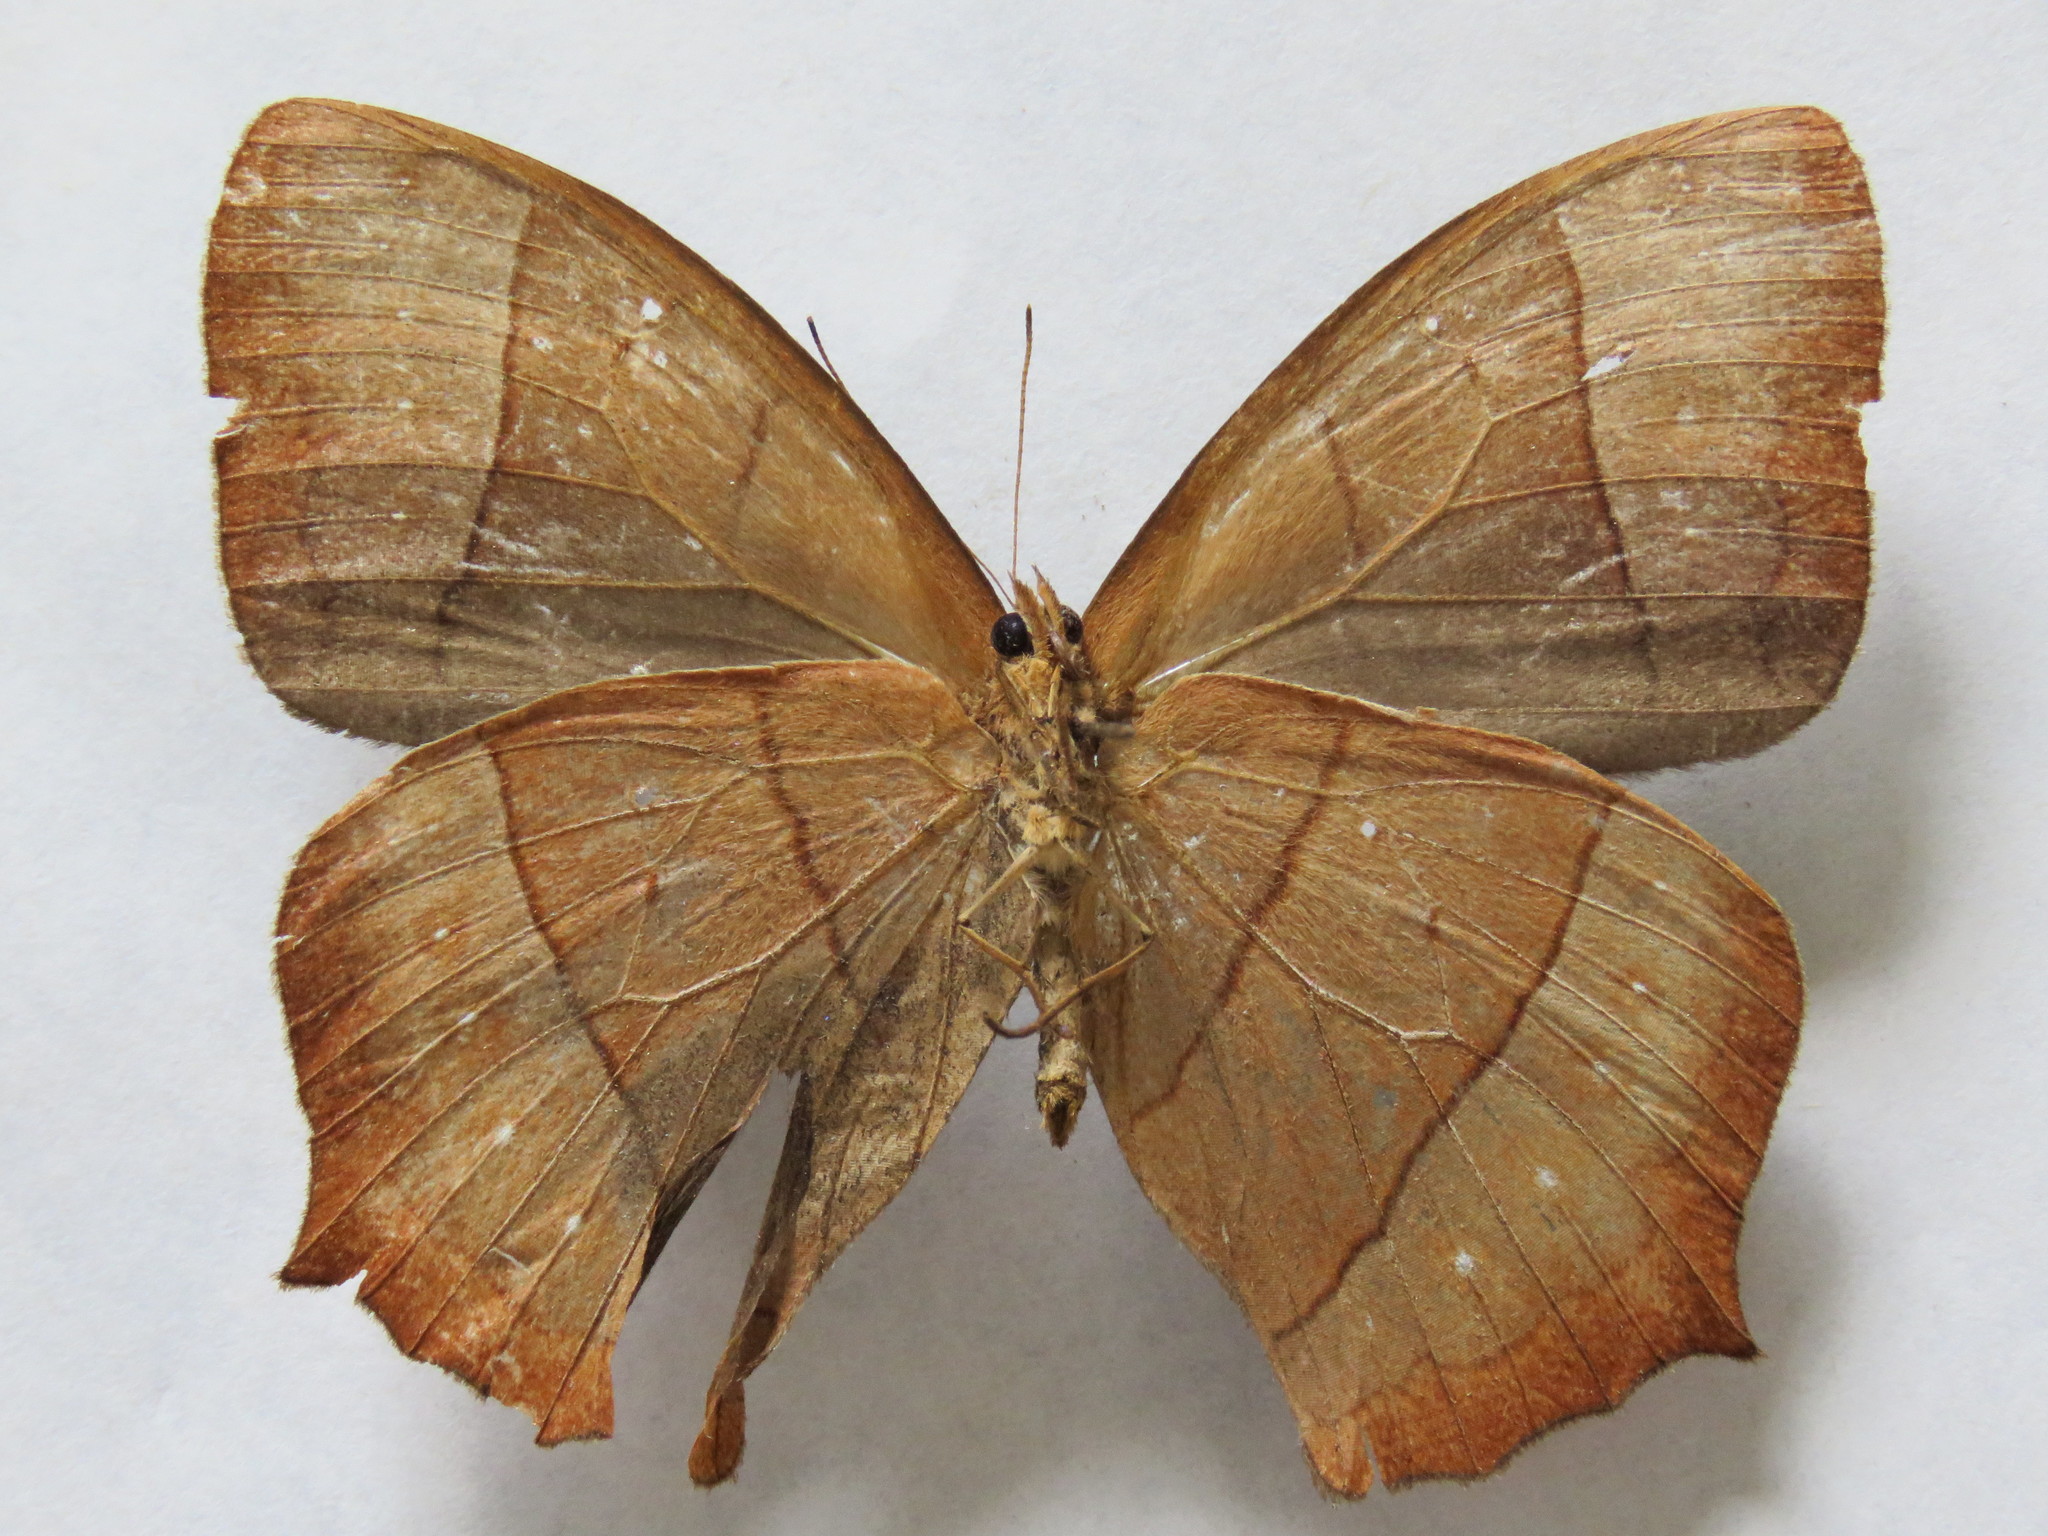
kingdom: Animalia
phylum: Arthropoda
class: Insecta
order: Lepidoptera
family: Nymphalidae
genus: Taygetis
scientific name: Taygetis virgilia
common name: Stub-tailed satyr
